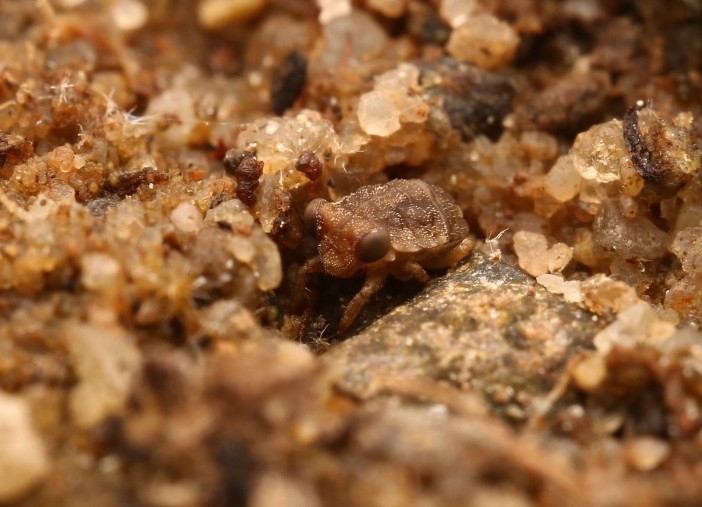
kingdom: Animalia
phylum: Arthropoda
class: Insecta
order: Hemiptera
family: Gelastocoridae
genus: Gelastocoris
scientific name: Gelastocoris oculatus
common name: Toad bug
